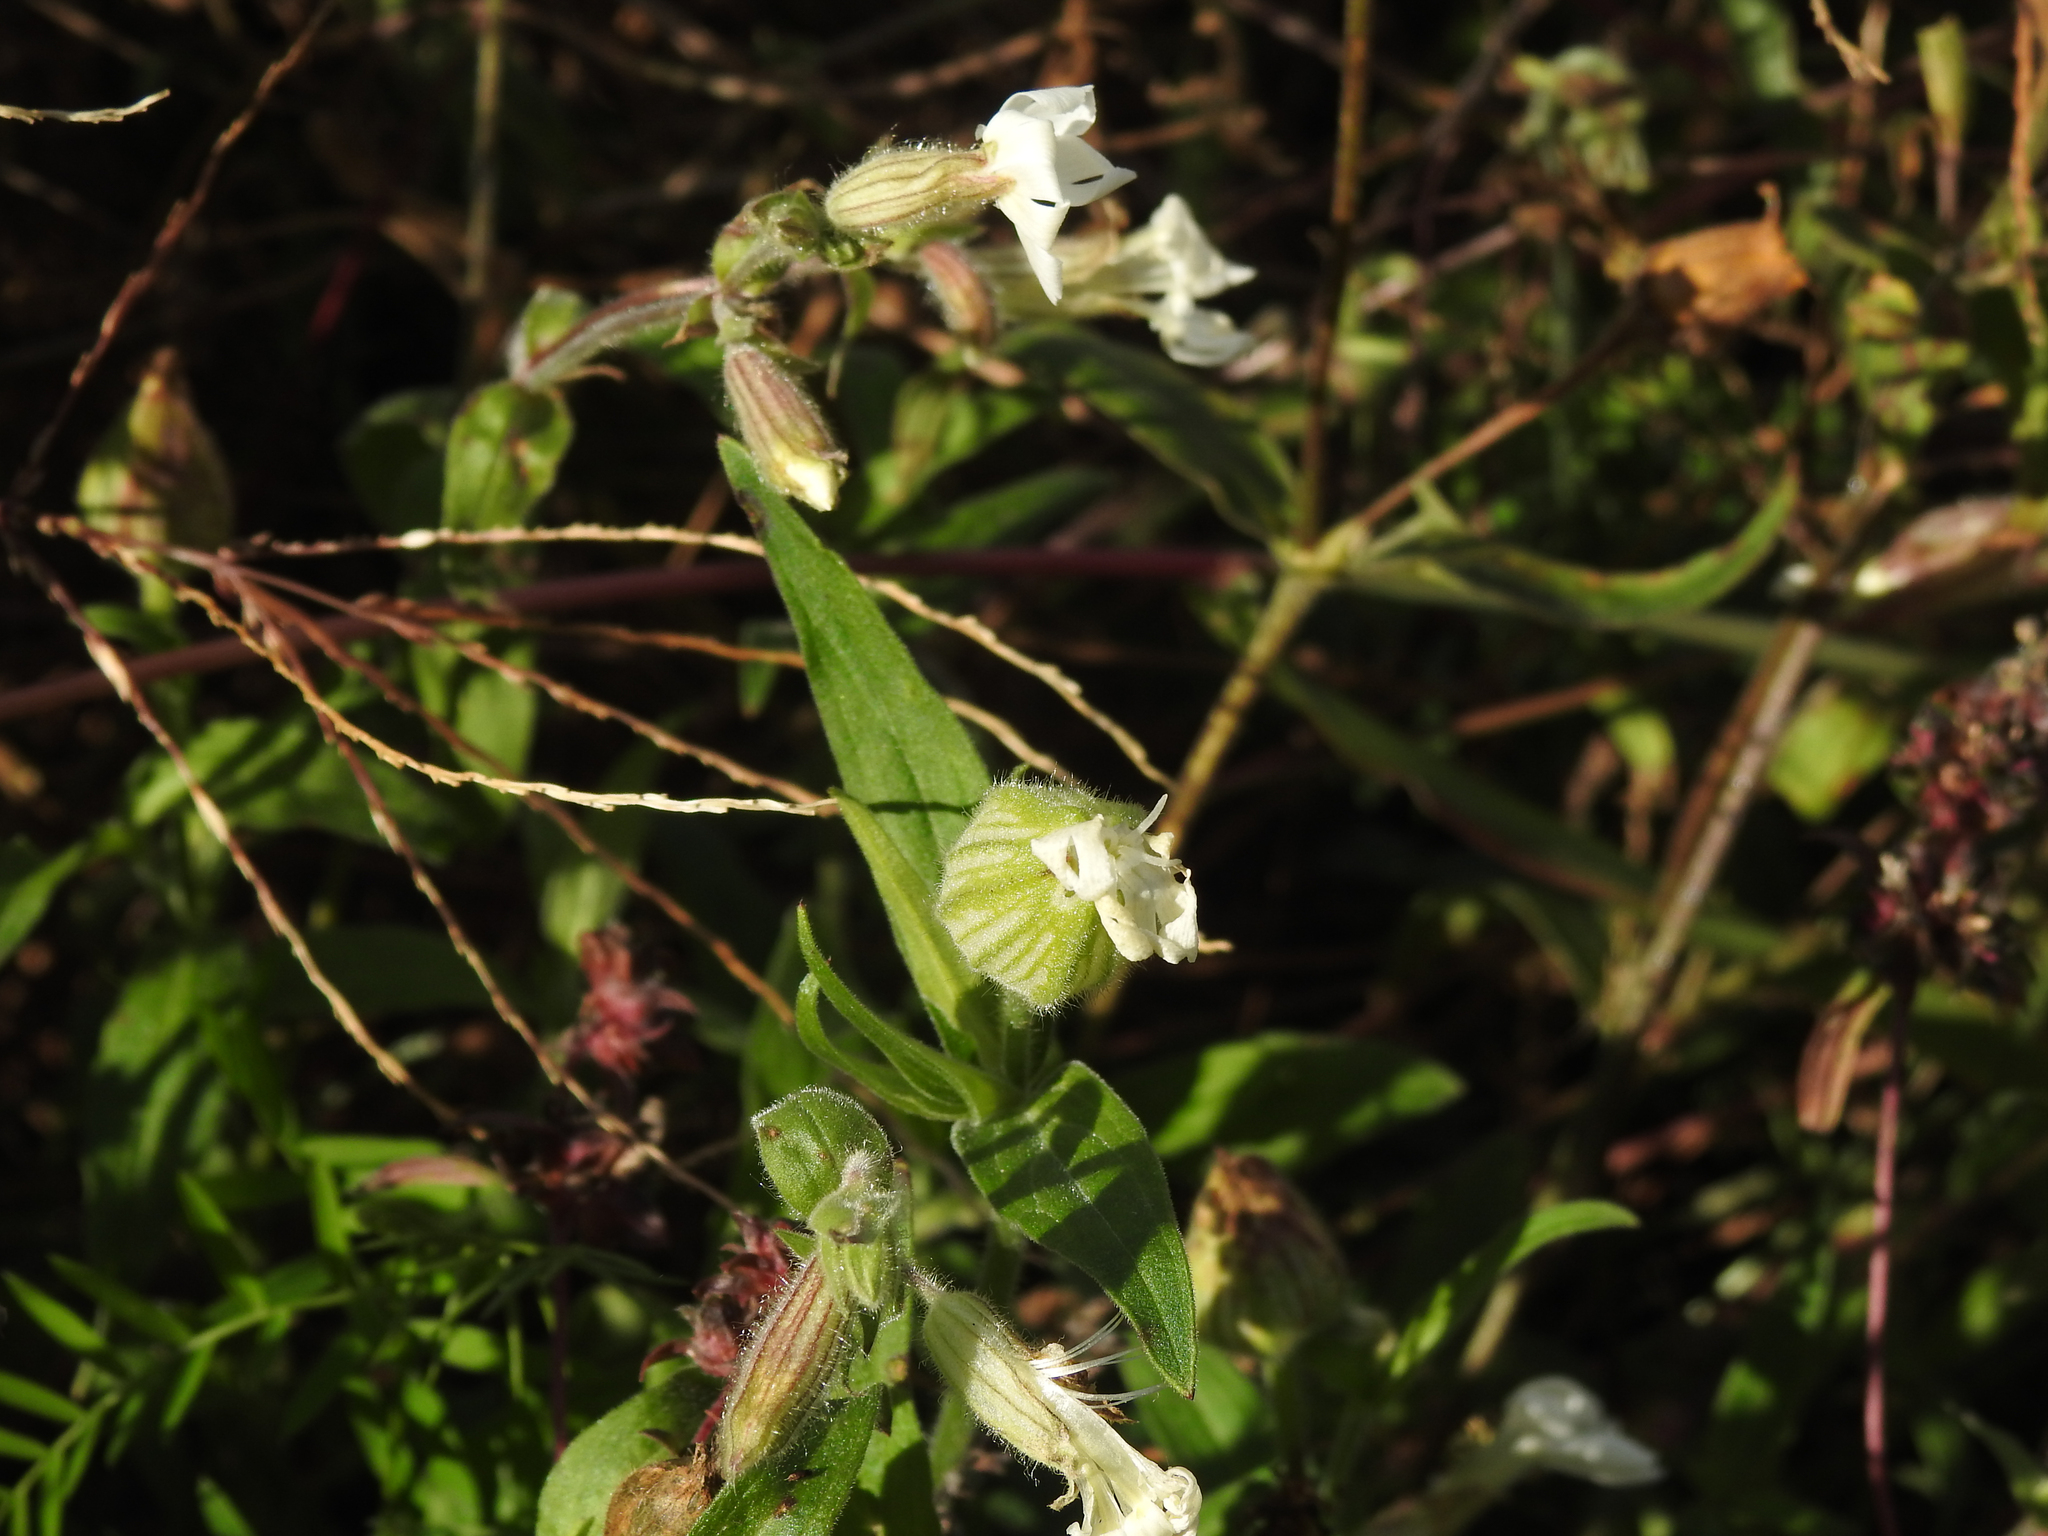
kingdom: Plantae
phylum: Tracheophyta
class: Magnoliopsida
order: Caryophyllales
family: Caryophyllaceae
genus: Silene
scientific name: Silene latifolia
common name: White campion
